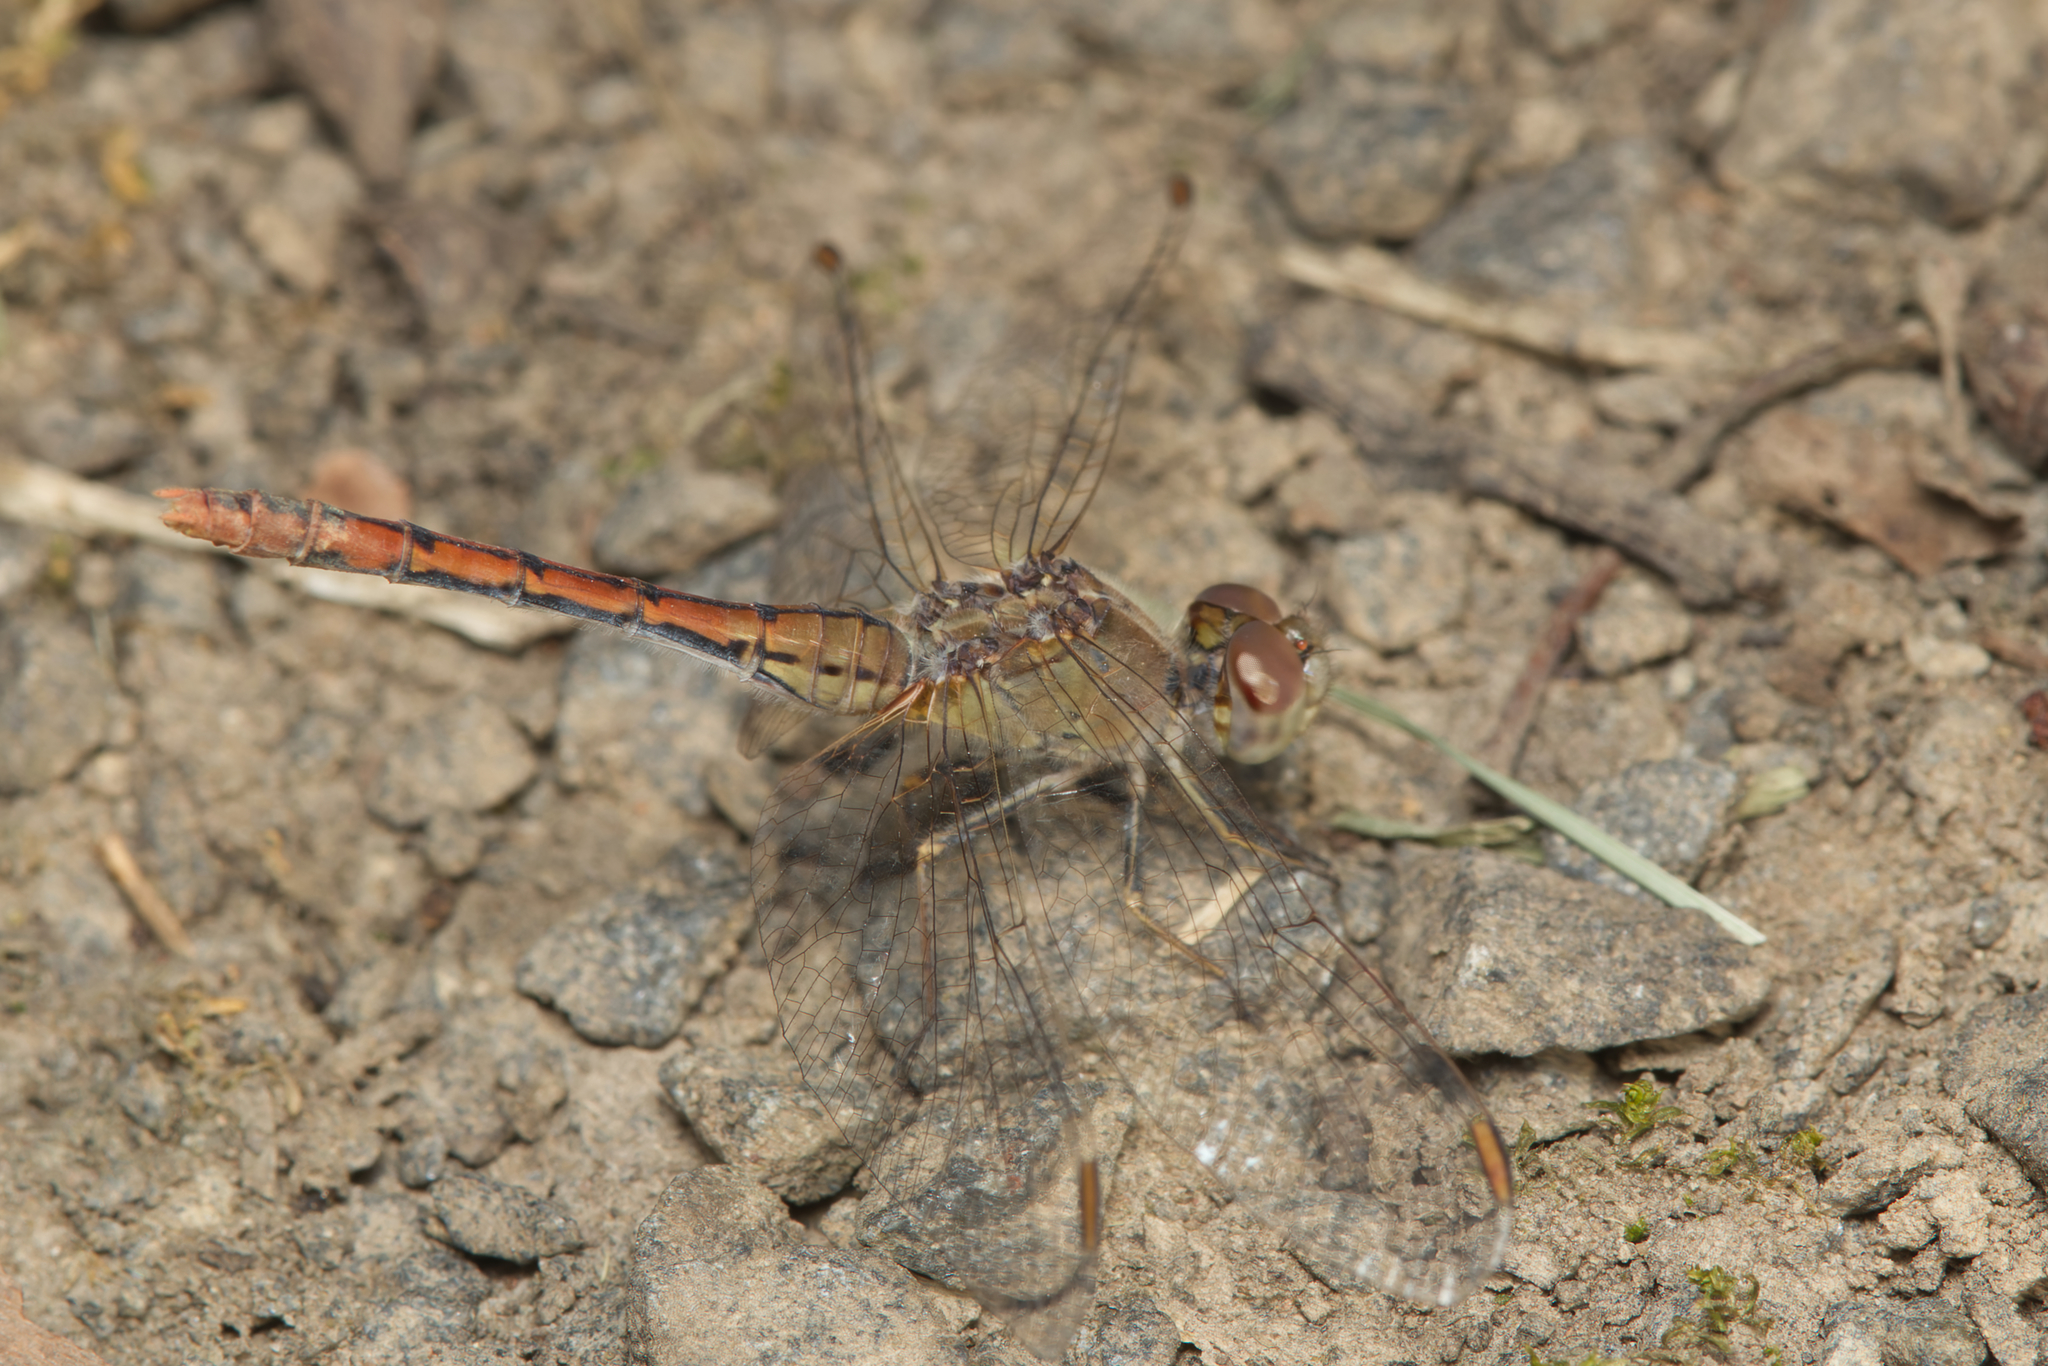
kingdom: Animalia
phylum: Arthropoda
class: Insecta
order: Odonata
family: Libellulidae
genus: Diplacodes
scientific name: Diplacodes bipunctata
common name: Red percher dragonfly
